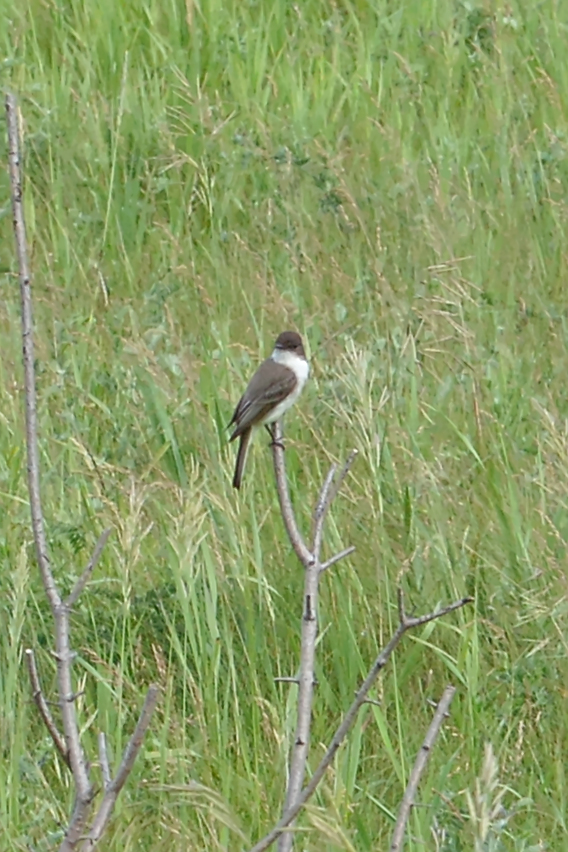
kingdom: Animalia
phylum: Chordata
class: Aves
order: Passeriformes
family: Tyrannidae
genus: Sayornis
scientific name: Sayornis phoebe
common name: Eastern phoebe
